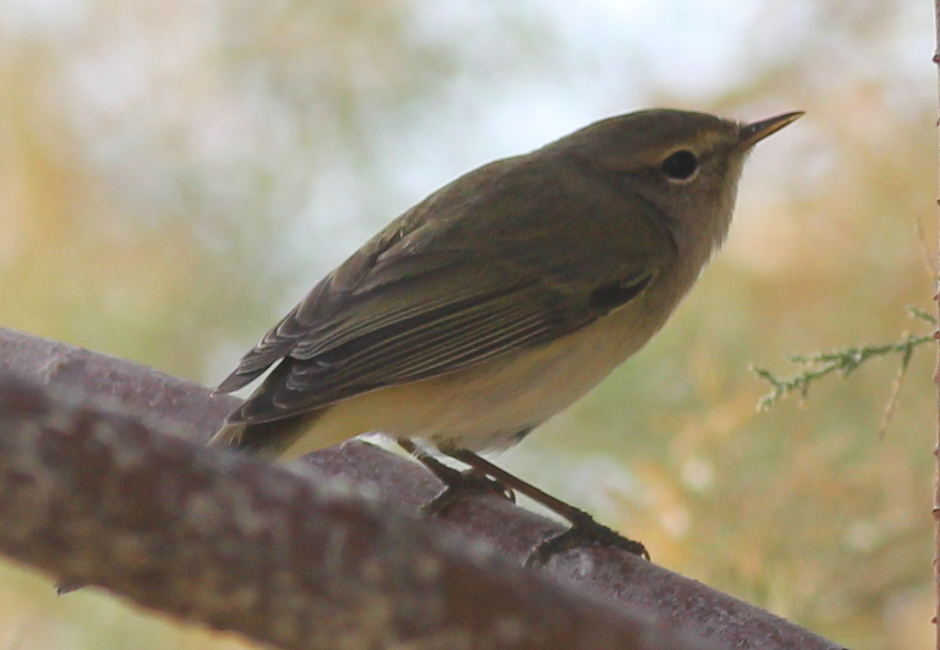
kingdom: Animalia
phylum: Chordata
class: Aves
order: Passeriformes
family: Phylloscopidae
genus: Phylloscopus
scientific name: Phylloscopus collybita
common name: Common chiffchaff
